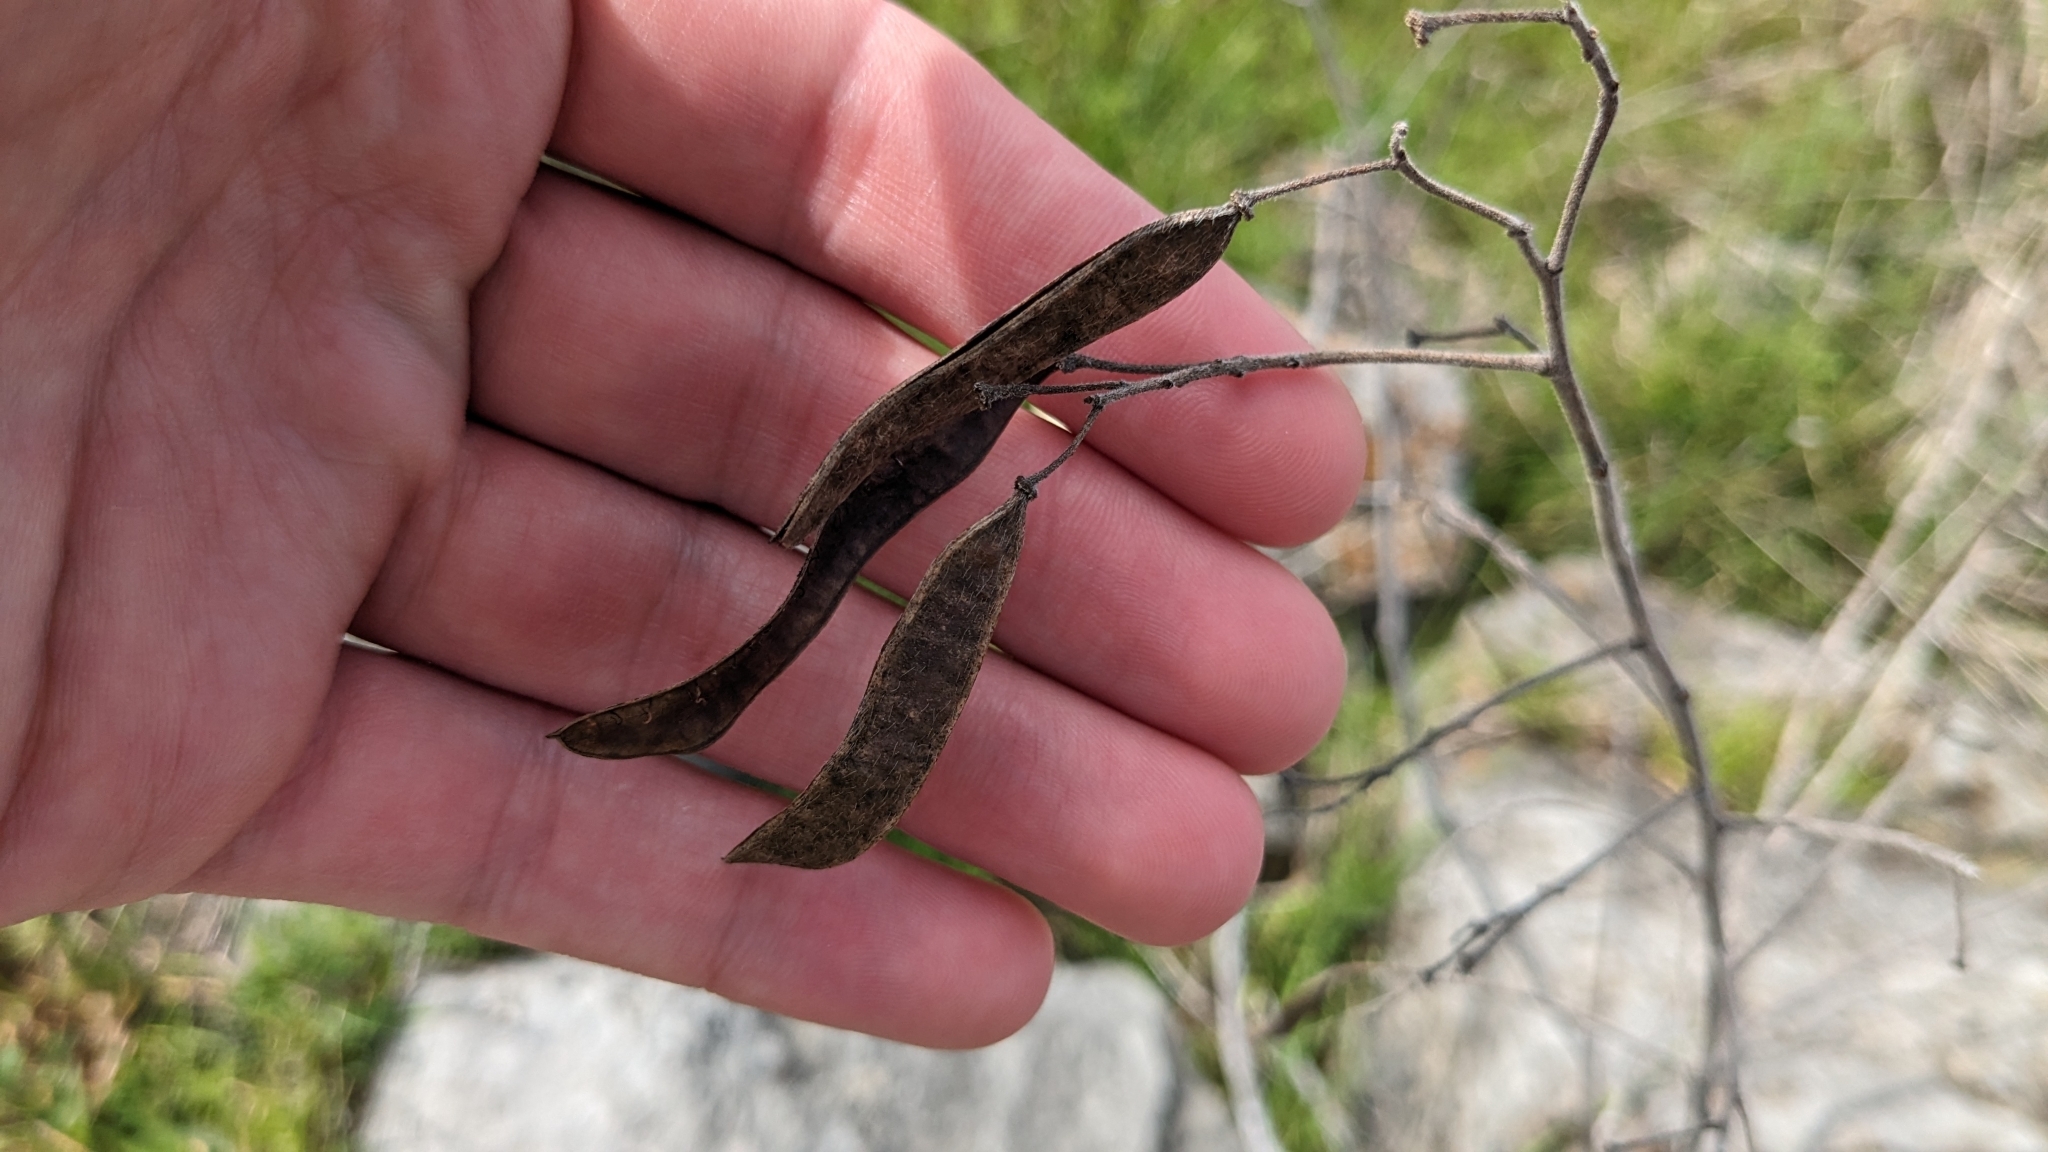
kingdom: Plantae
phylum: Tracheophyta
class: Magnoliopsida
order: Fabales
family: Fabaceae
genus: Senna
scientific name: Senna lindheimeriana
